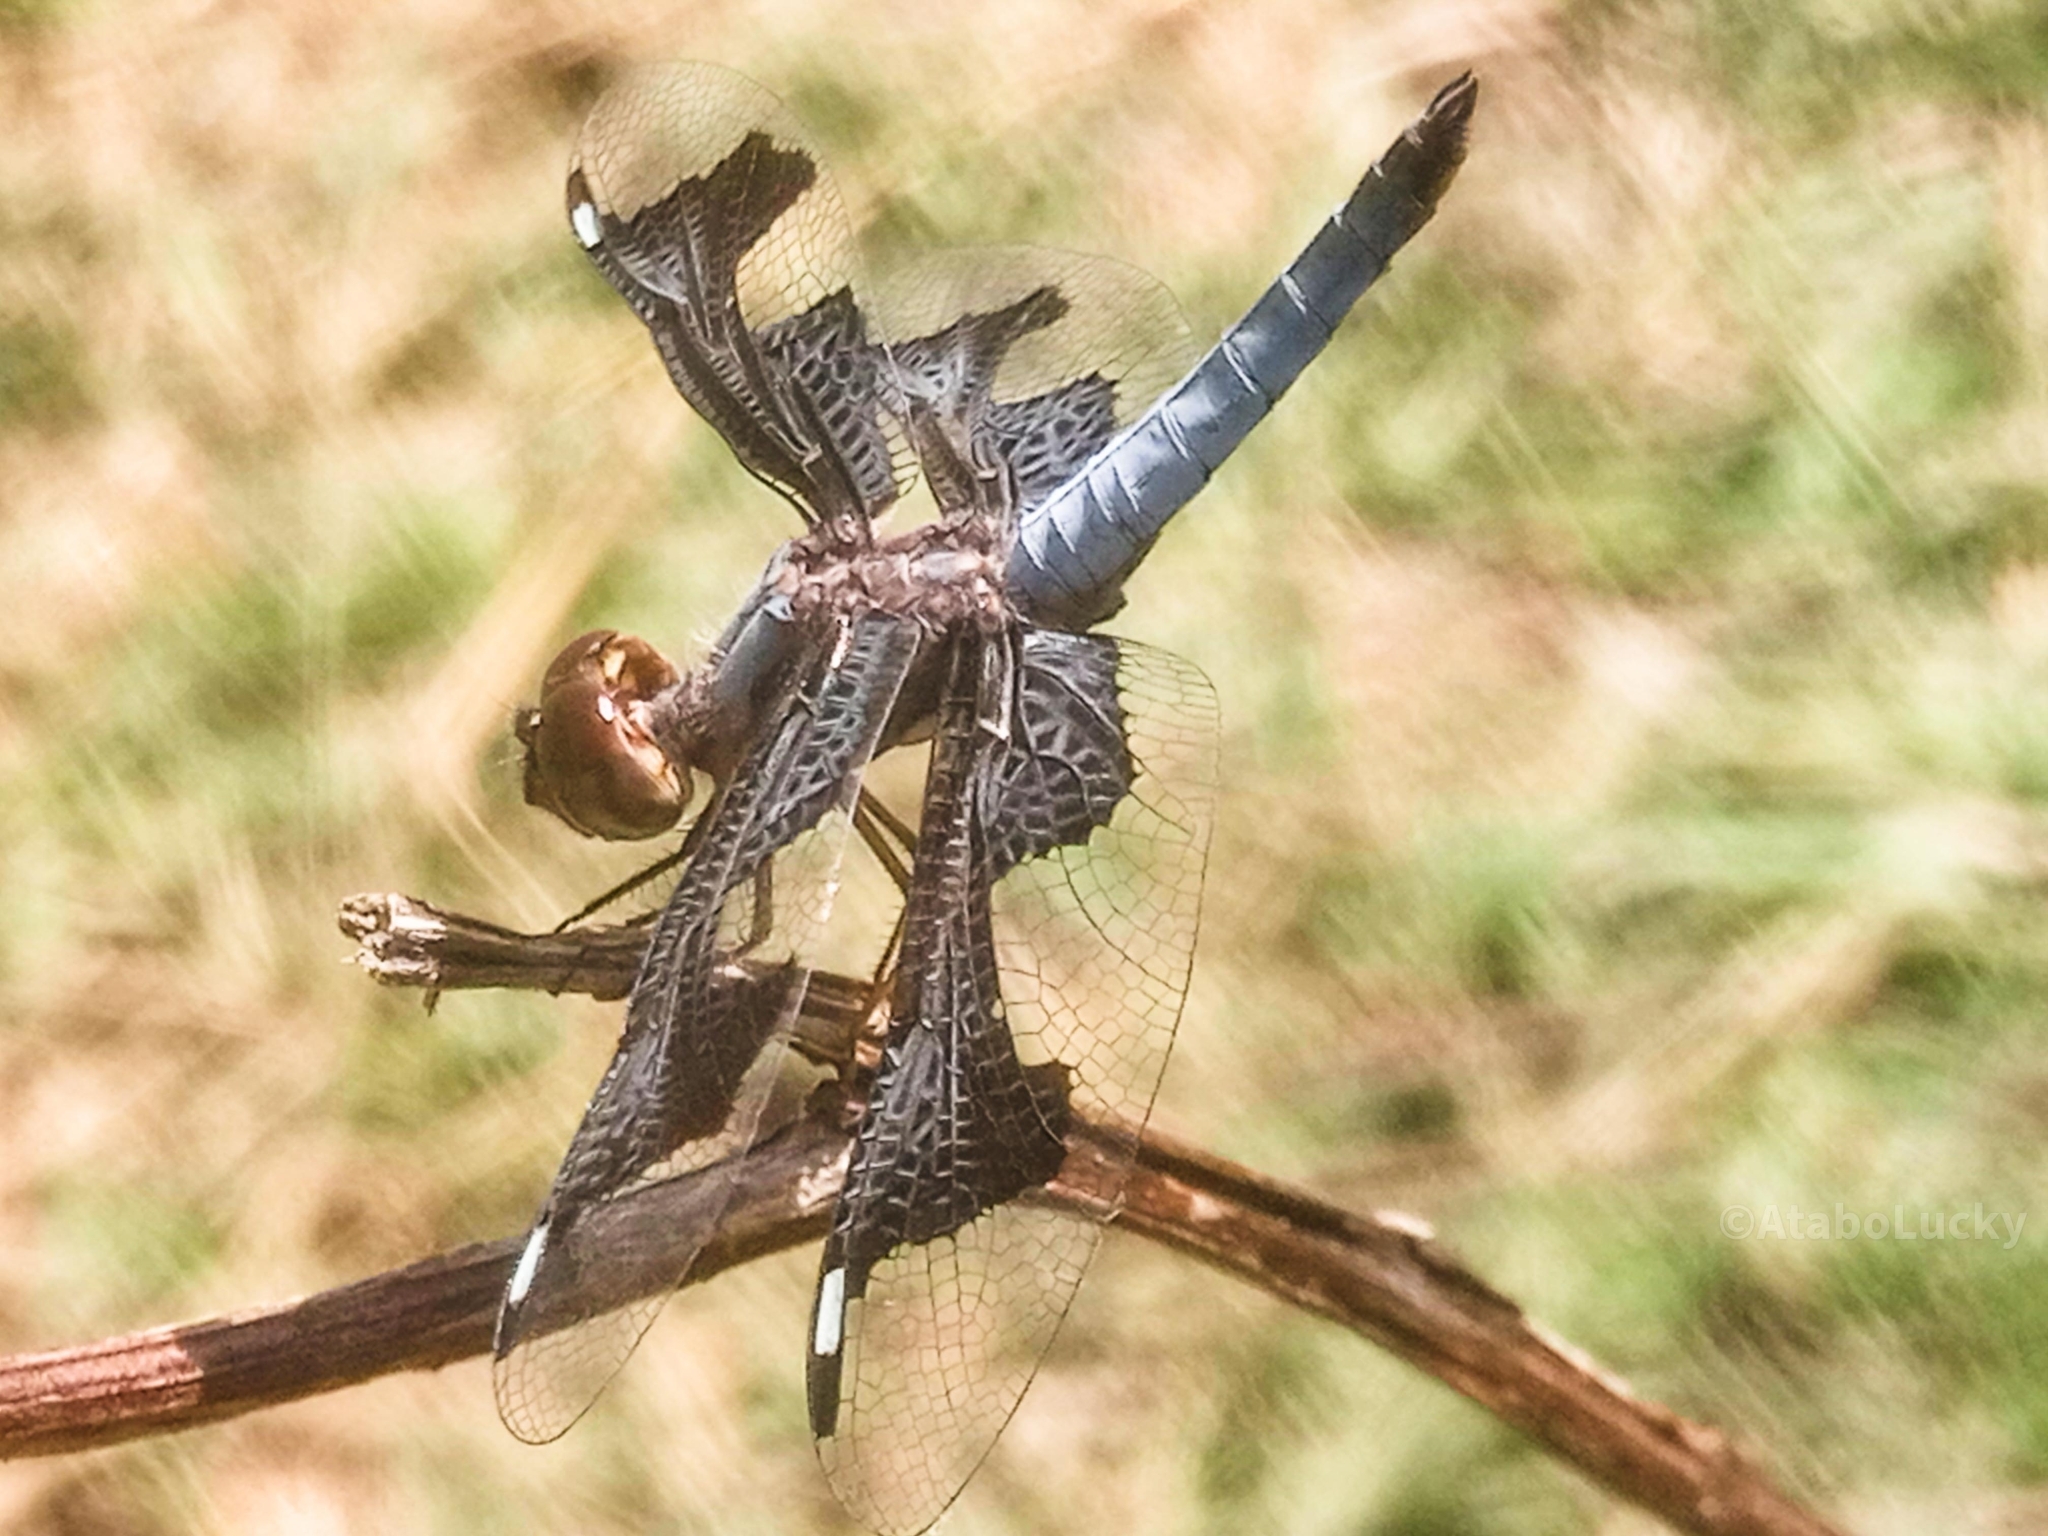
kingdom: Animalia
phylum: Arthropoda
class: Insecta
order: Odonata
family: Libellulidae
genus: Palpopleura
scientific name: Palpopleura portia
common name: Portia widow
